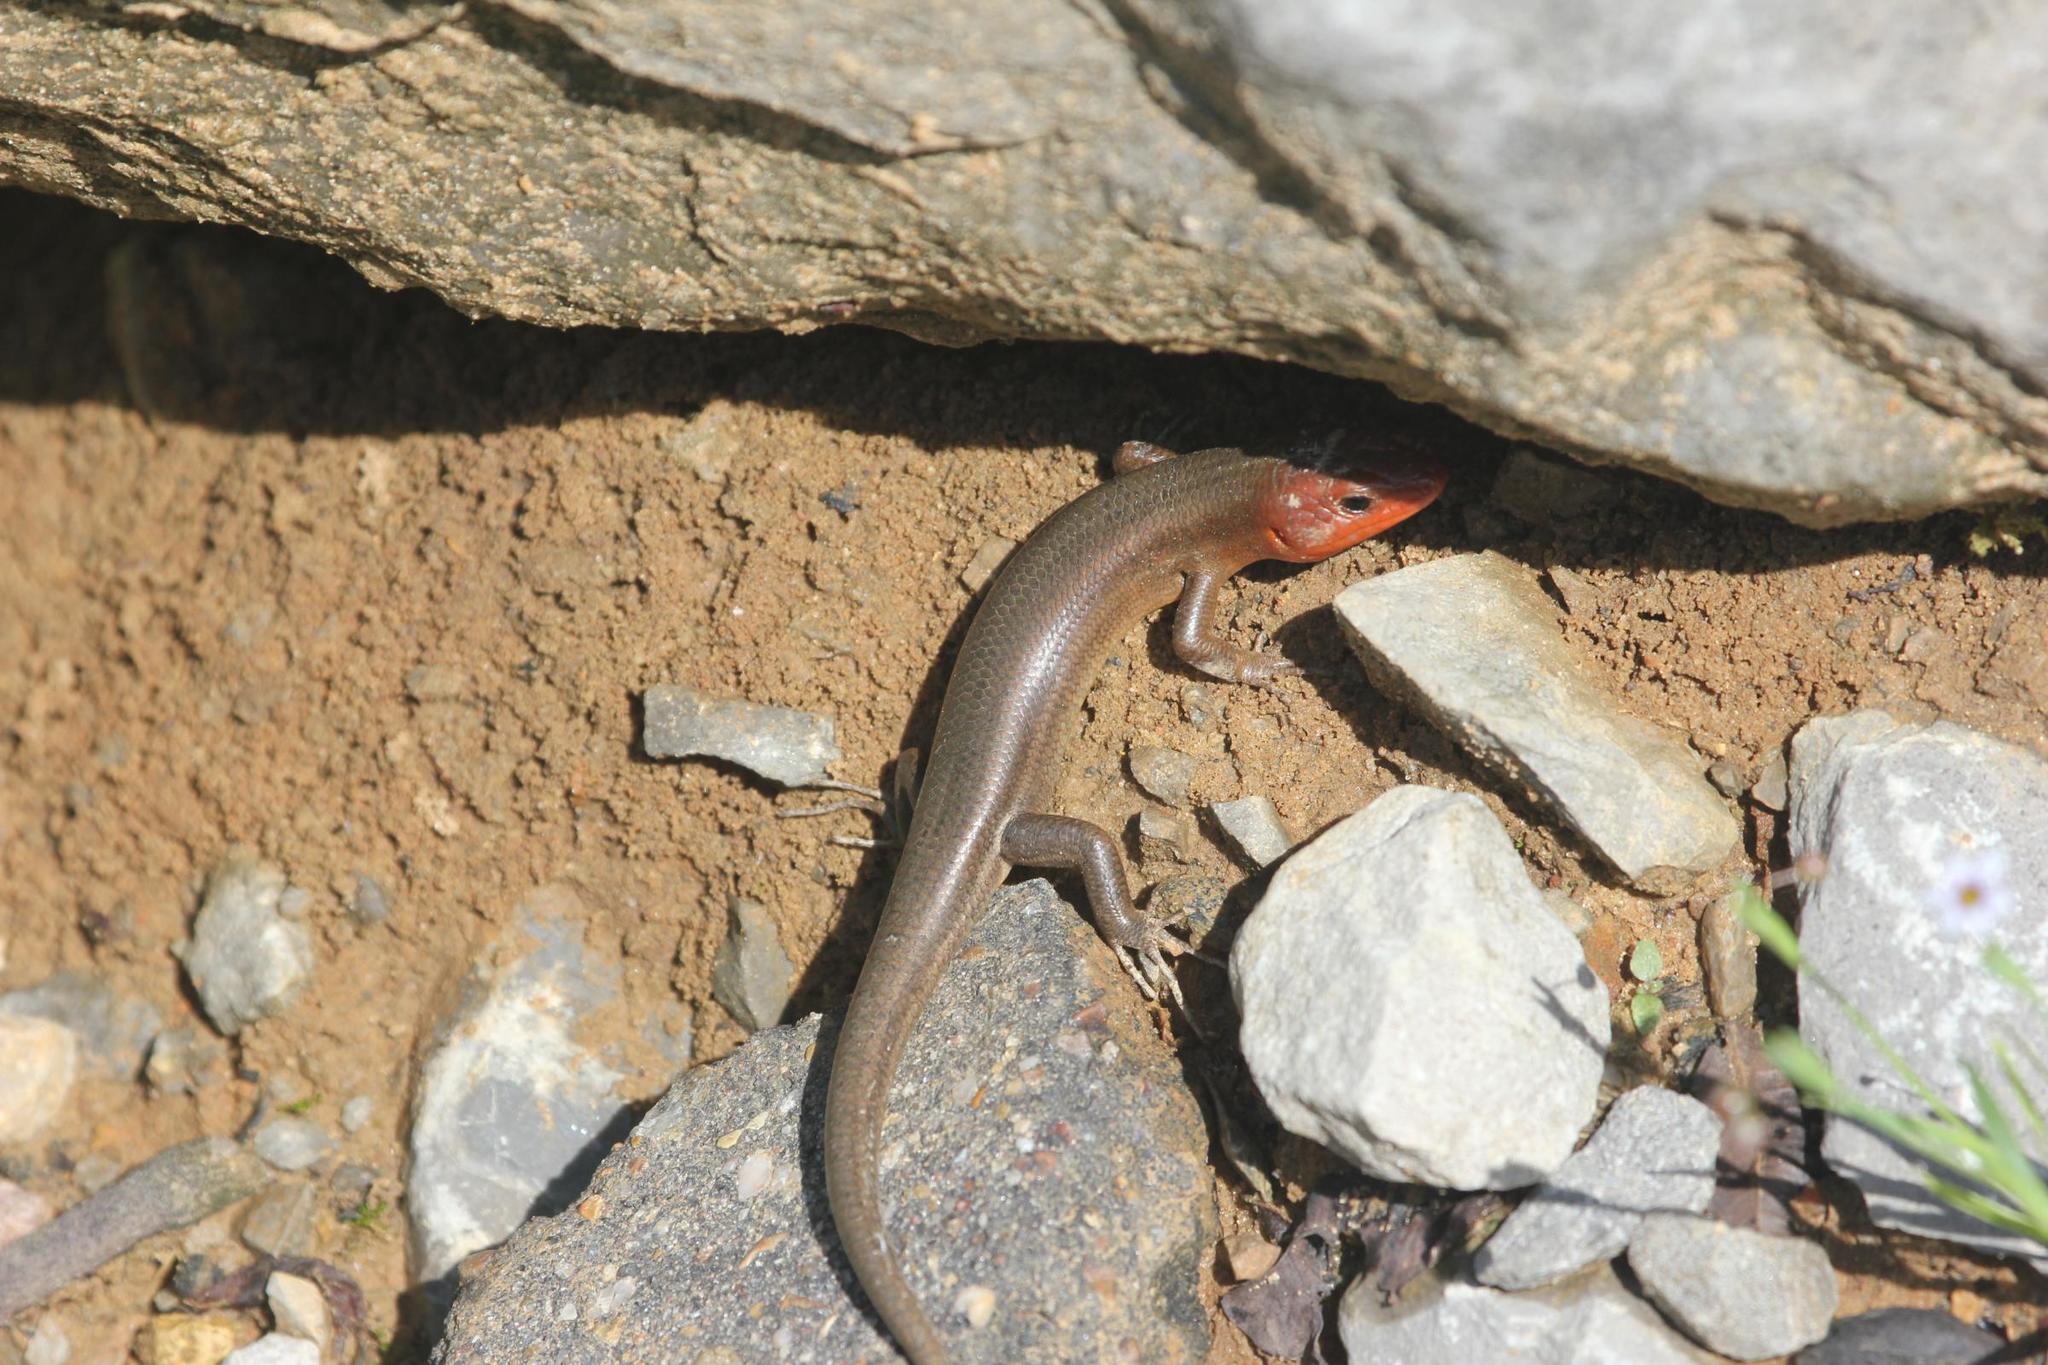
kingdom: Animalia
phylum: Chordata
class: Squamata
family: Scincidae
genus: Plestiodon
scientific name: Plestiodon laticeps
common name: Broadhead skink
